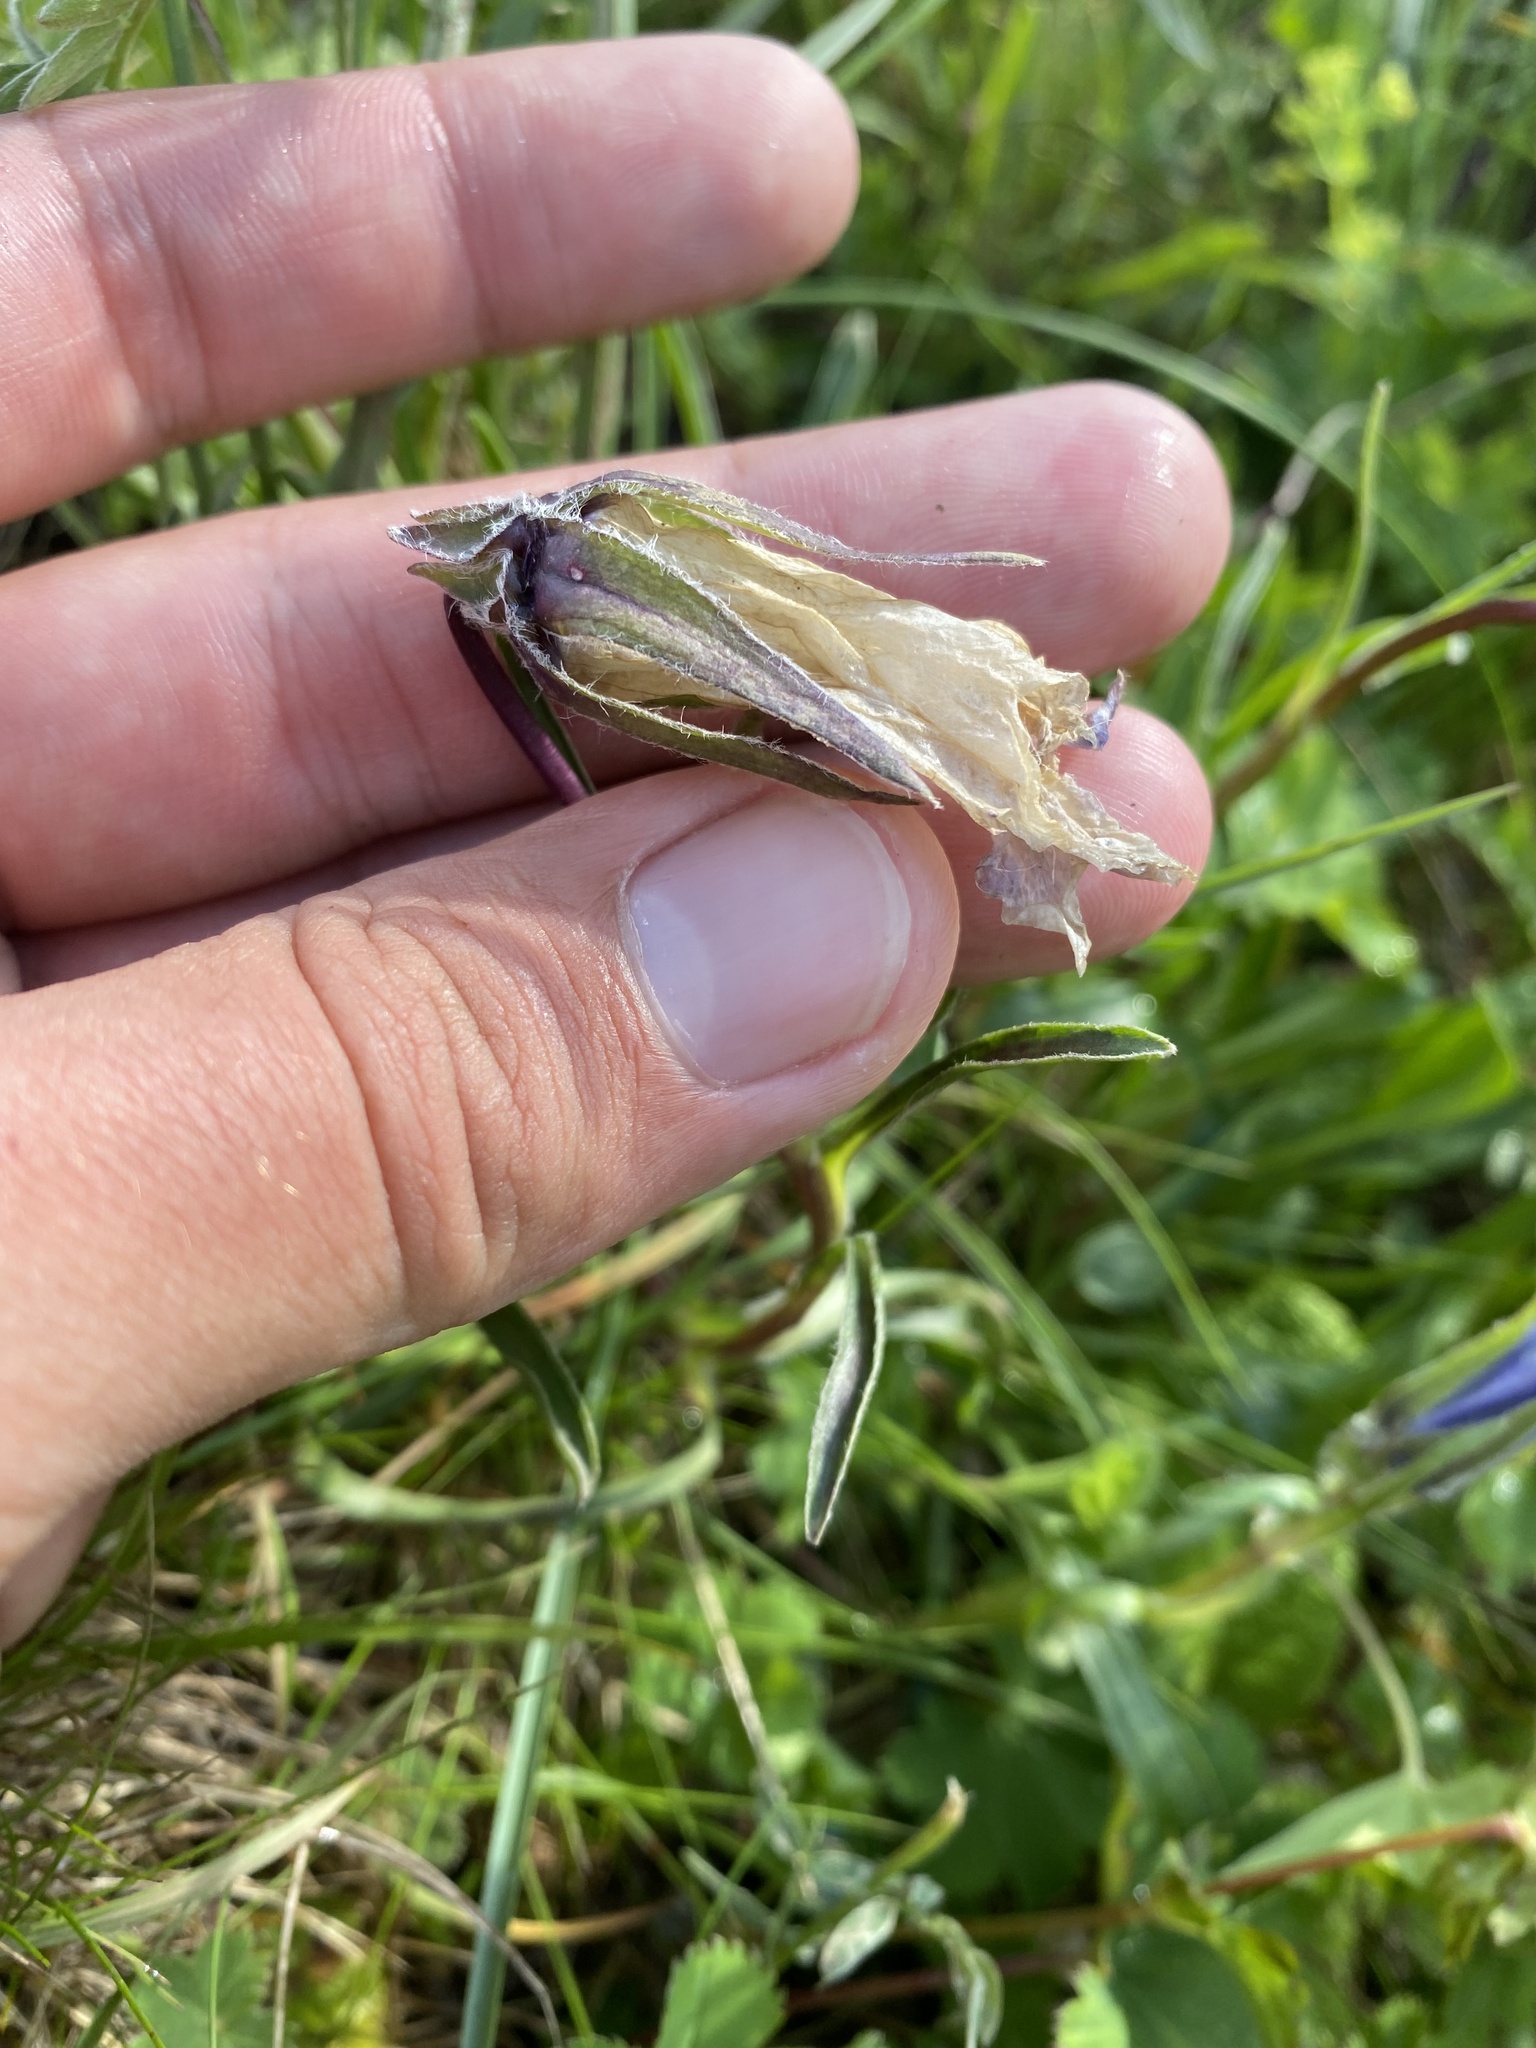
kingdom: Plantae
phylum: Tracheophyta
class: Magnoliopsida
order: Asterales
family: Campanulaceae
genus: Campanula
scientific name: Campanula tridentata
